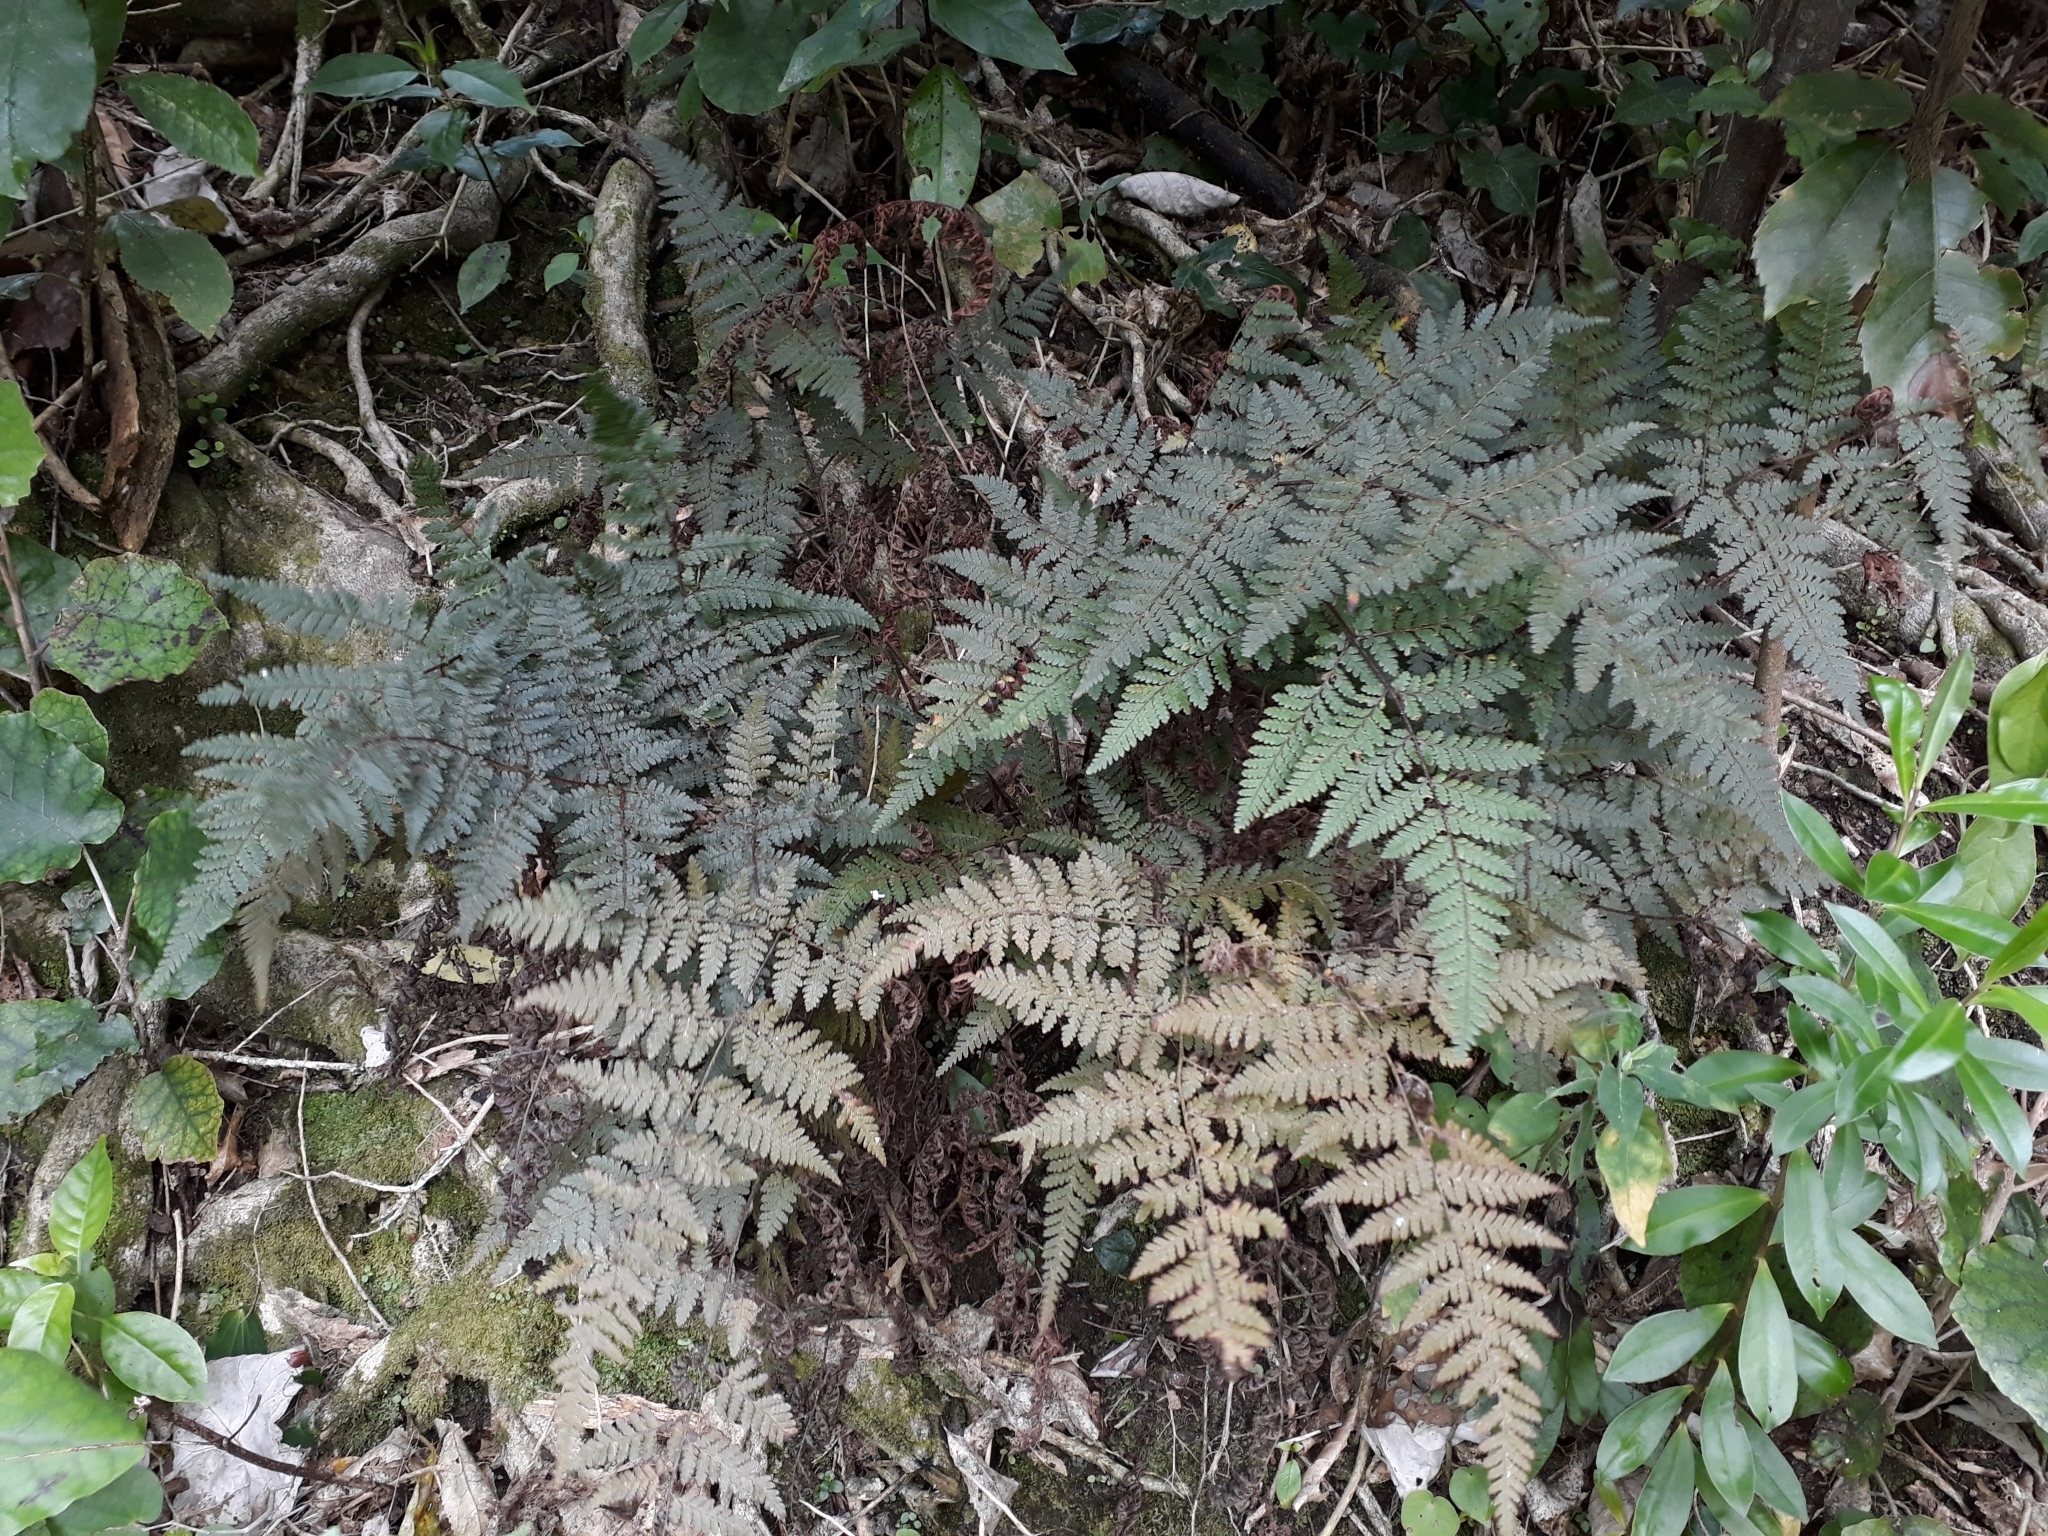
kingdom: Plantae
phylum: Tracheophyta
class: Polypodiopsida
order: Polypodiales
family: Dryopteridaceae
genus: Lastreopsis
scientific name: Lastreopsis velutina
